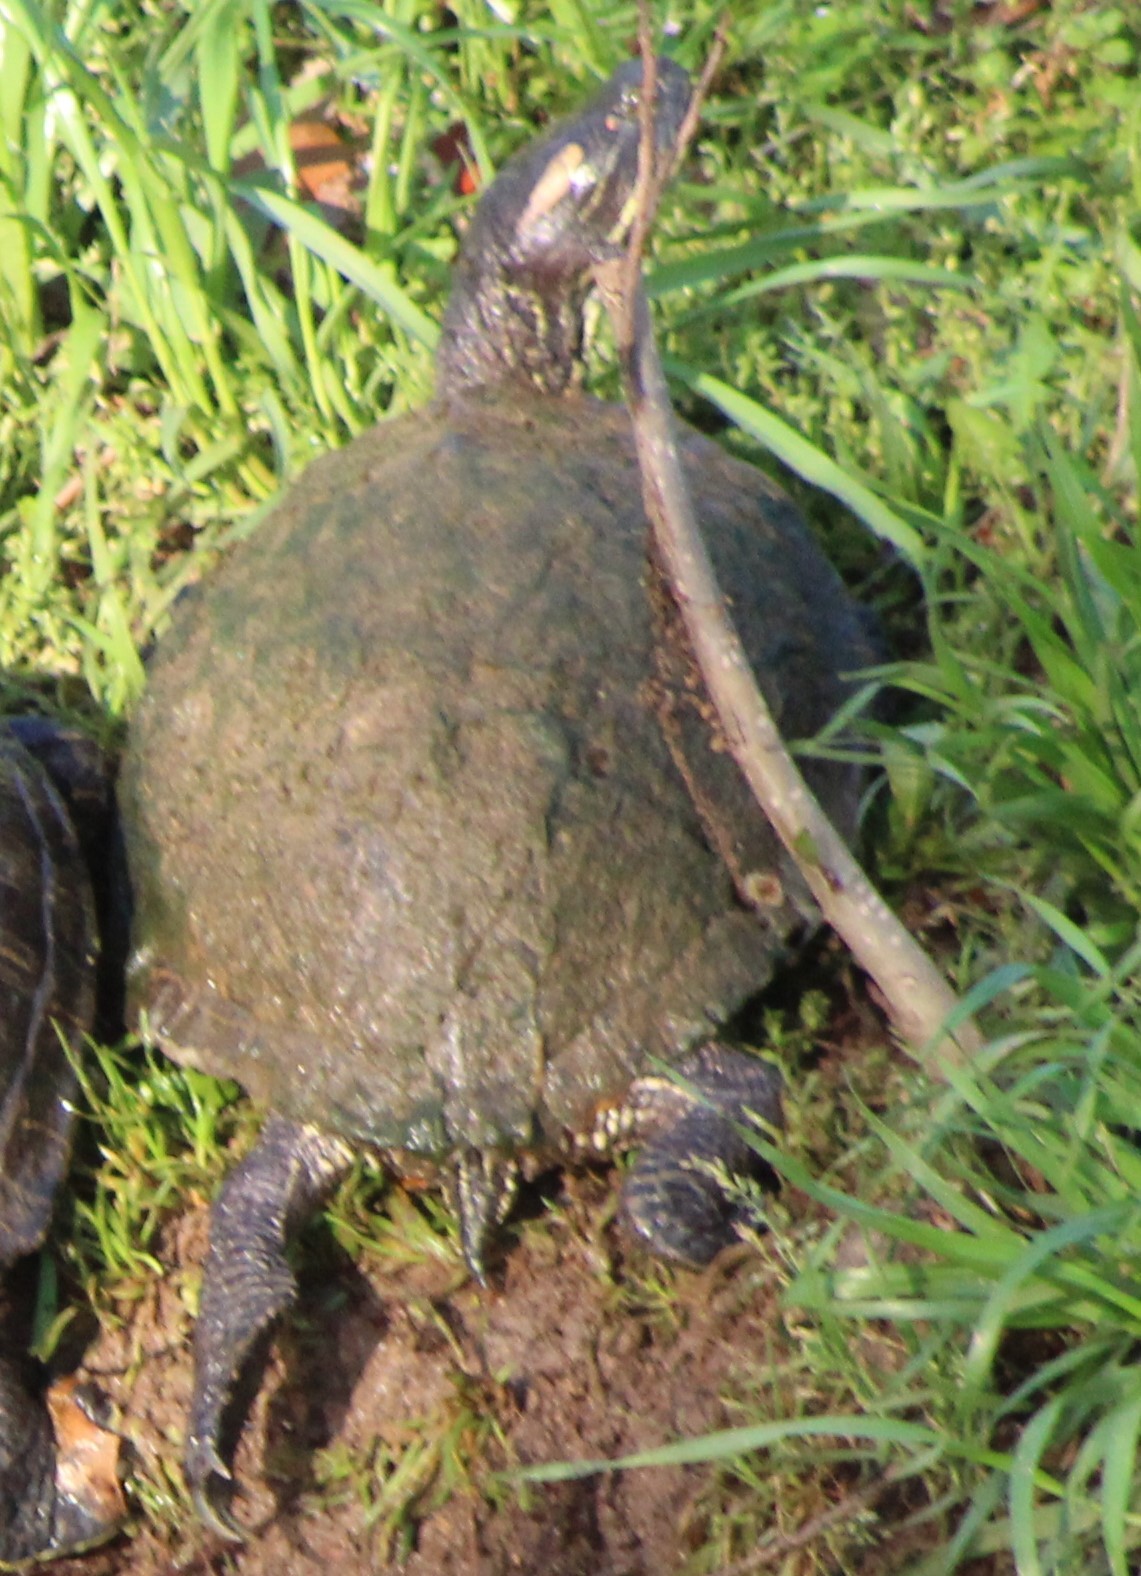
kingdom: Animalia
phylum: Chordata
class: Testudines
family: Emydidae
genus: Trachemys
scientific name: Trachemys scripta
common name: Slider
